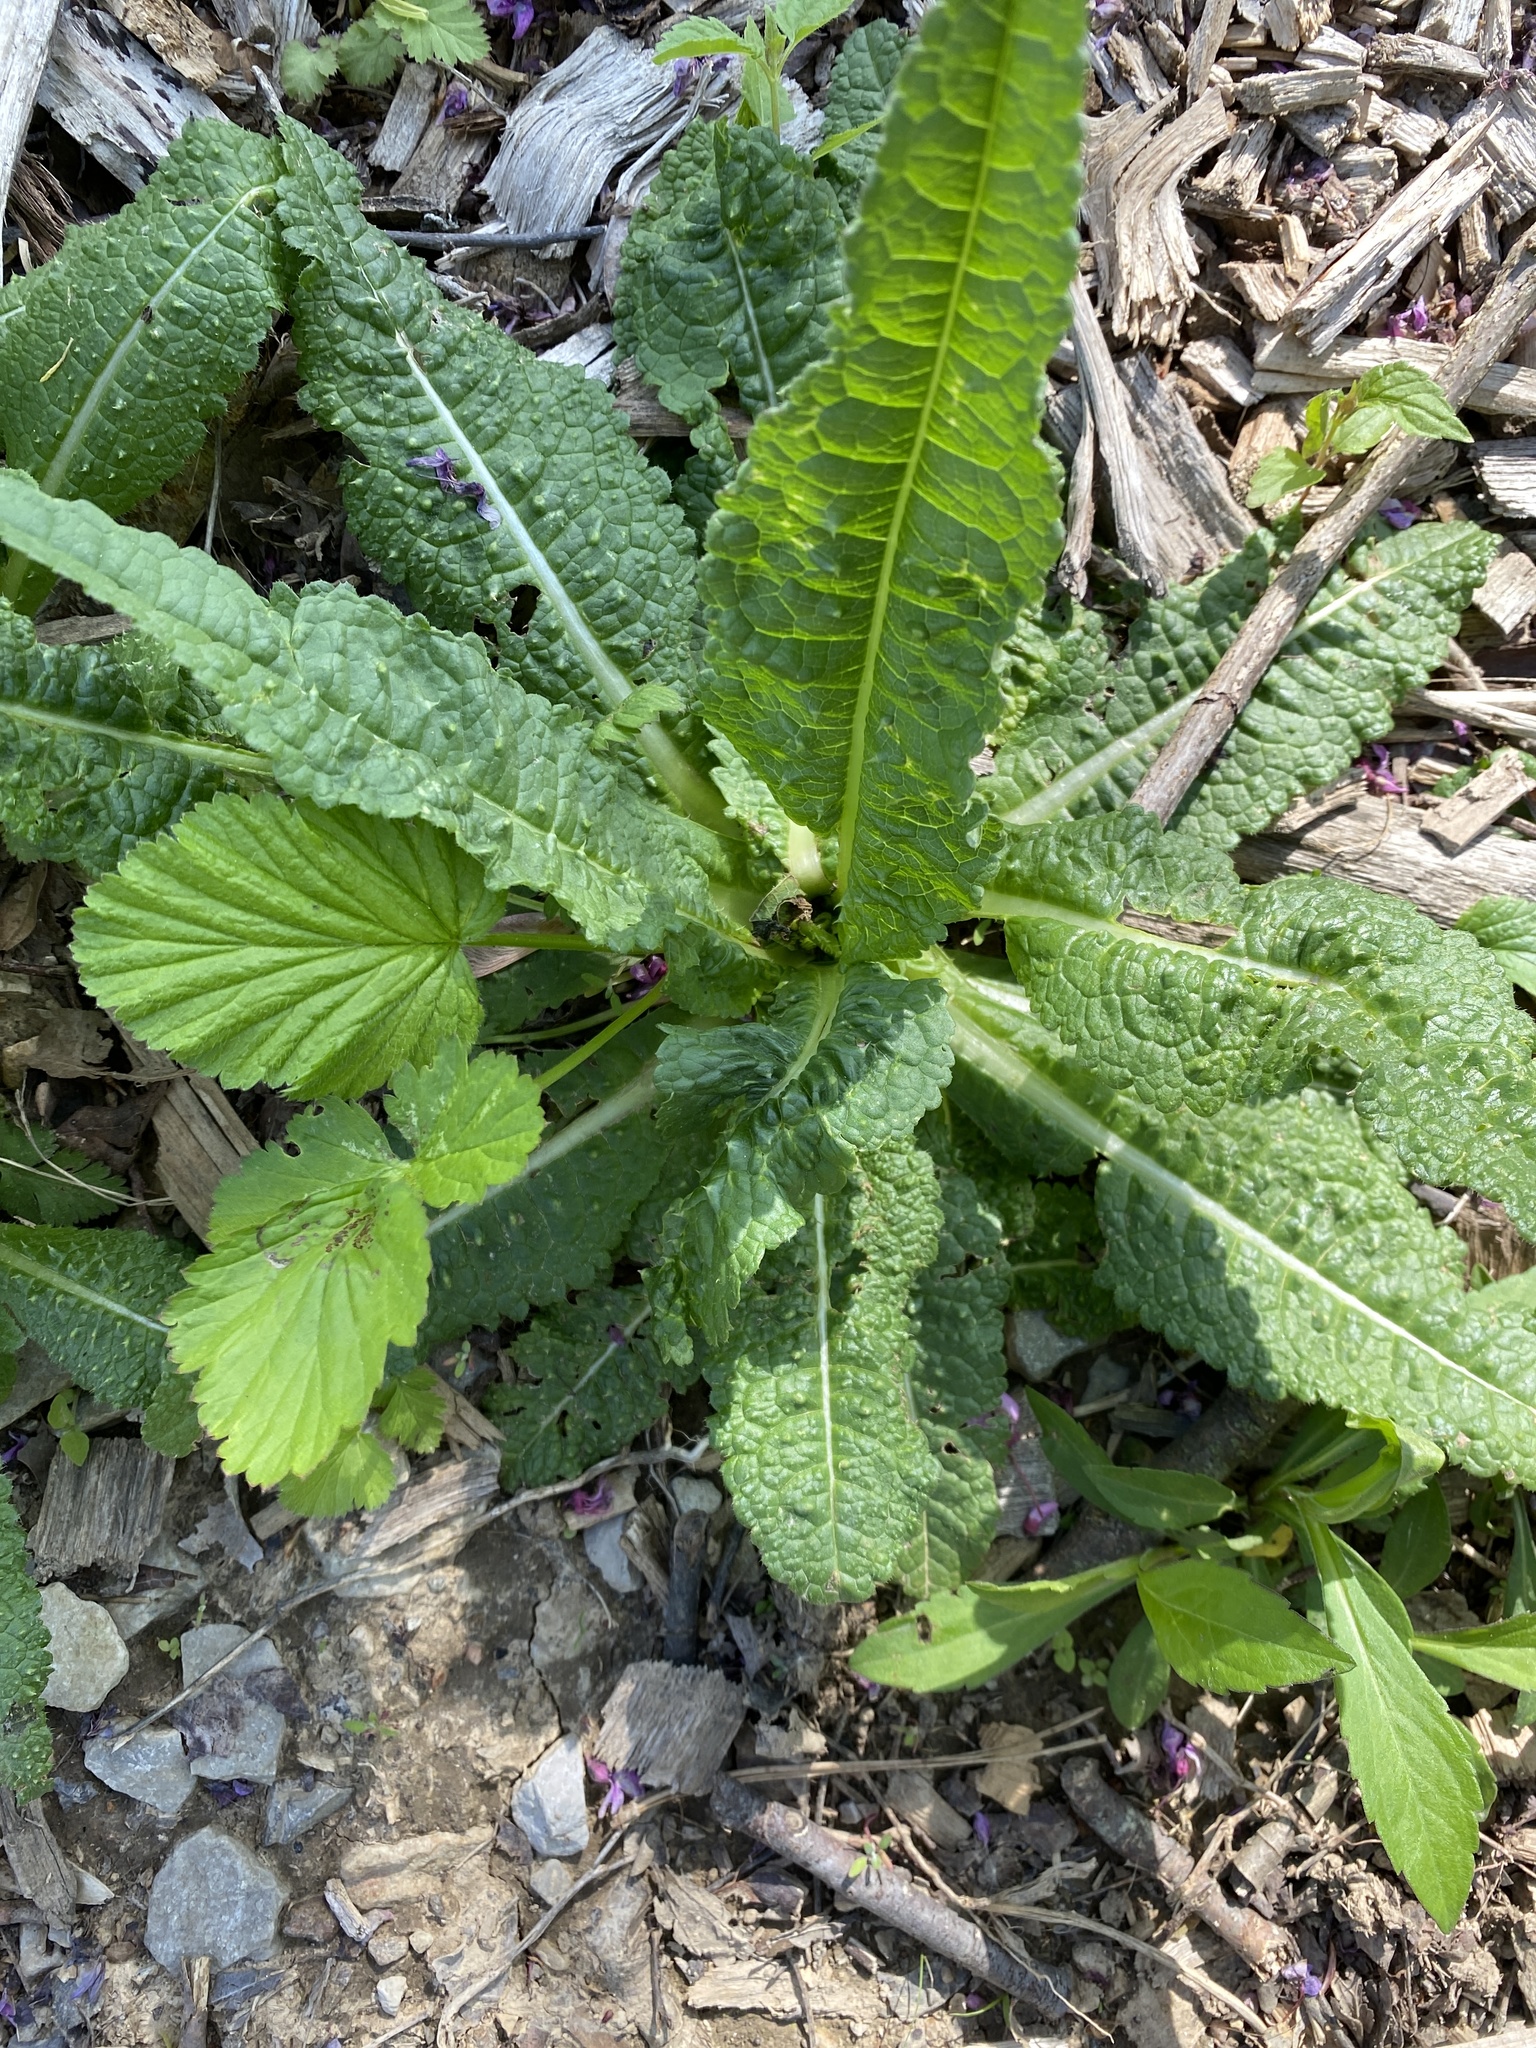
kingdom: Plantae
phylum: Tracheophyta
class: Magnoliopsida
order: Dipsacales
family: Caprifoliaceae
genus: Dipsacus
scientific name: Dipsacus fullonum
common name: Teasel
